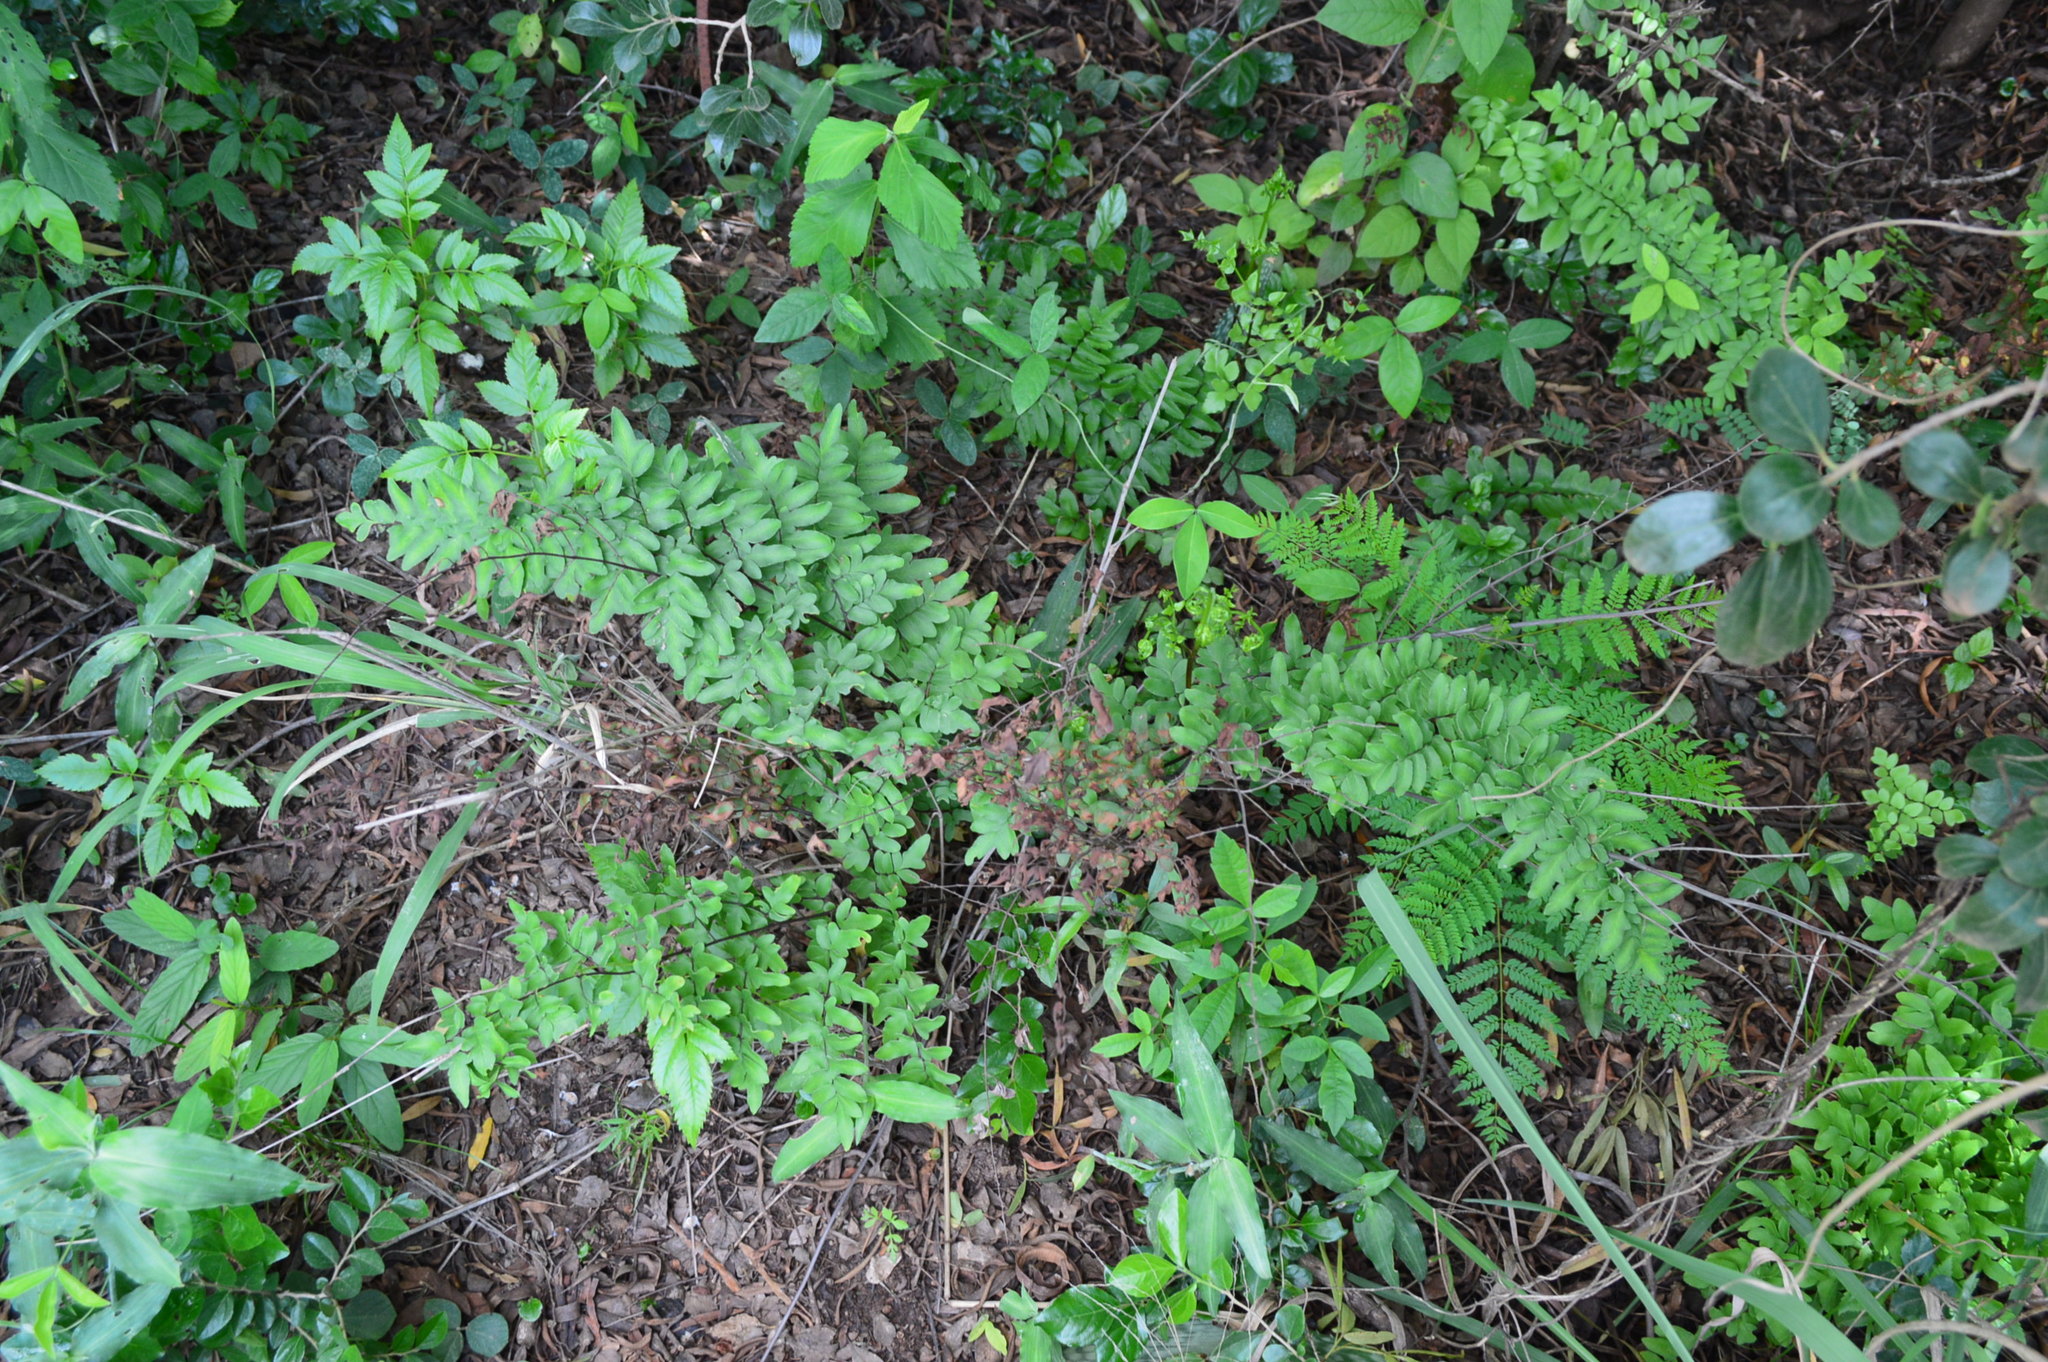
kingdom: Plantae
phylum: Tracheophyta
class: Polypodiopsida
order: Polypodiales
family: Pteridaceae
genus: Cheilanthes
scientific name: Cheilanthes viridis
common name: Green cliffbrake
